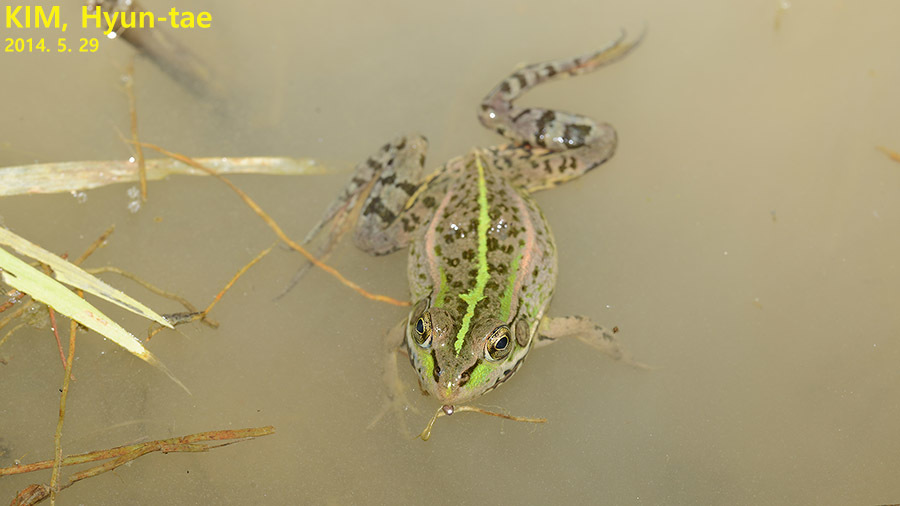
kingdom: Animalia
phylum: Chordata
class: Amphibia
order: Anura
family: Ranidae
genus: Pelophylax
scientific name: Pelophylax chosenicus
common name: Gold-spotted pond frog
